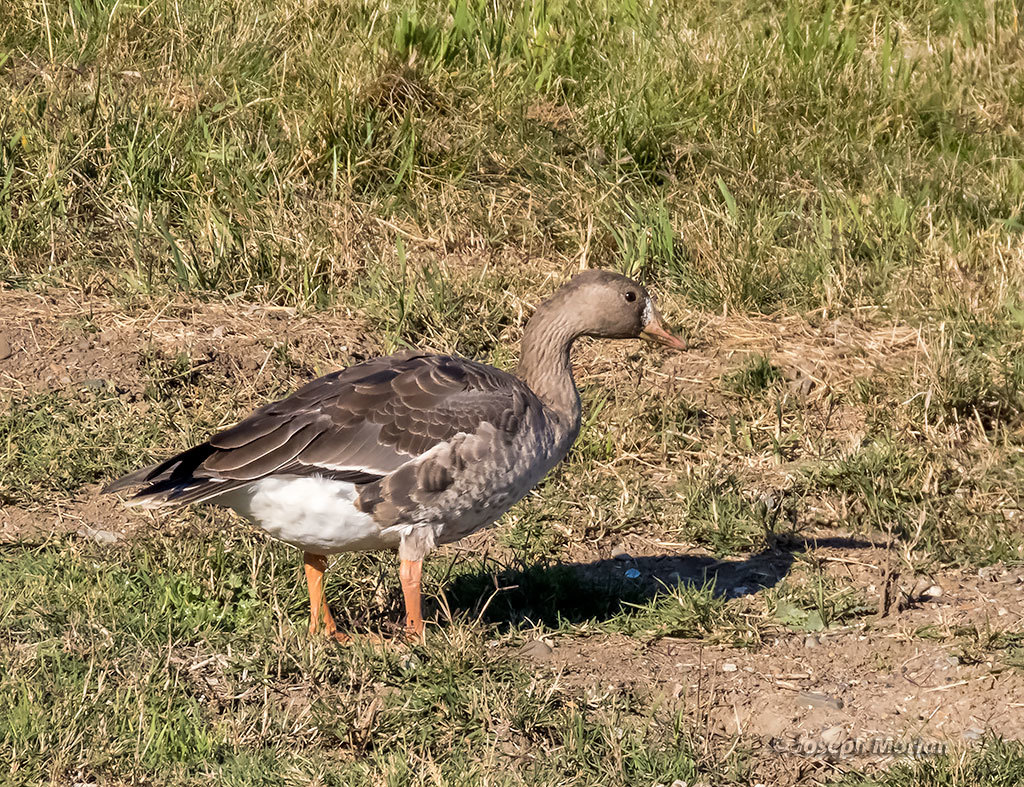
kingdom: Animalia
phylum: Chordata
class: Aves
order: Anseriformes
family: Anatidae
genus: Anser
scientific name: Anser albifrons
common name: Greater white-fronted goose
